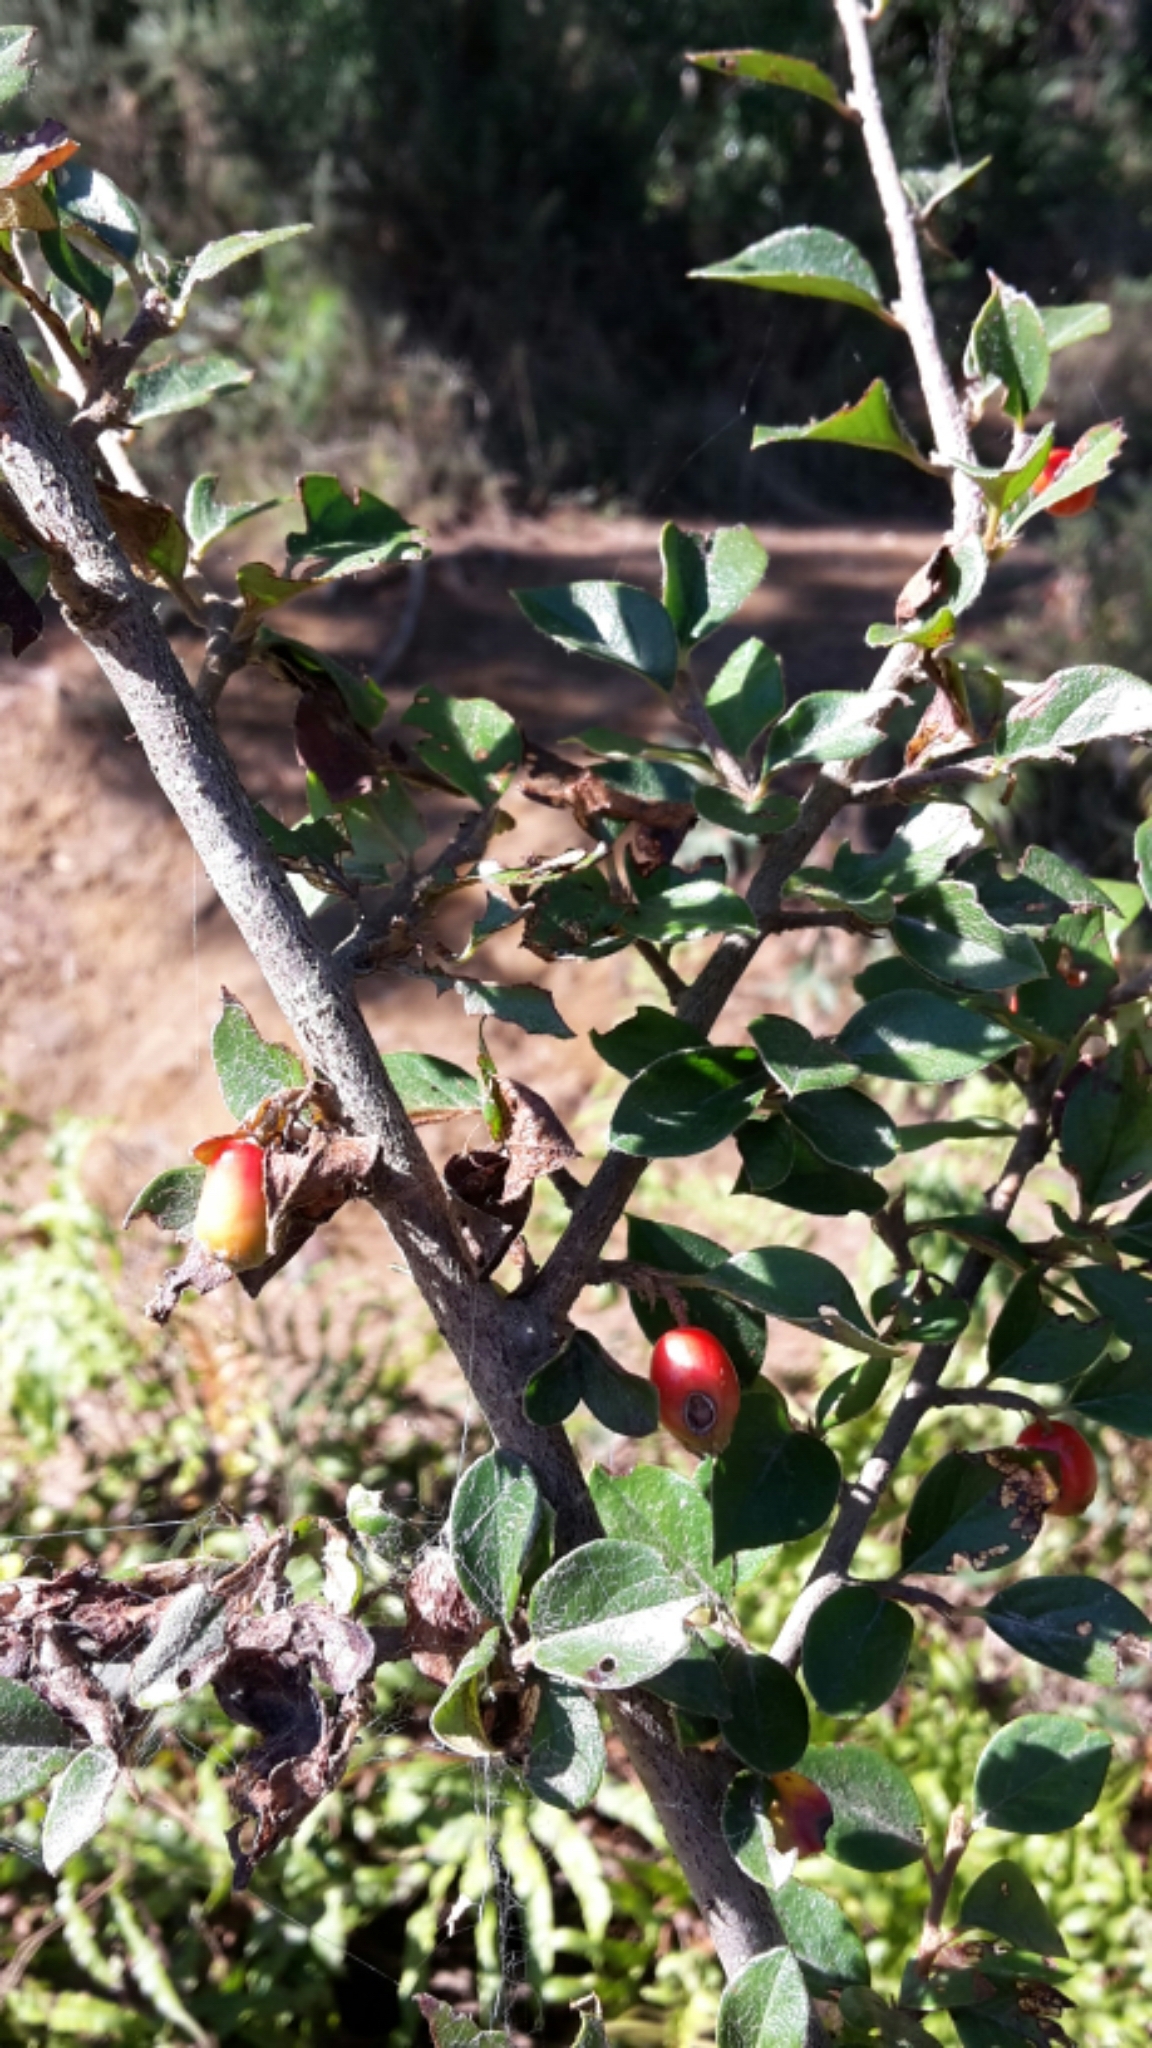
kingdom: Plantae
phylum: Tracheophyta
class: Magnoliopsida
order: Rosales
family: Rosaceae
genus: Cotoneaster
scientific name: Cotoneaster simonsii
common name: Himalayan cotoneaster
